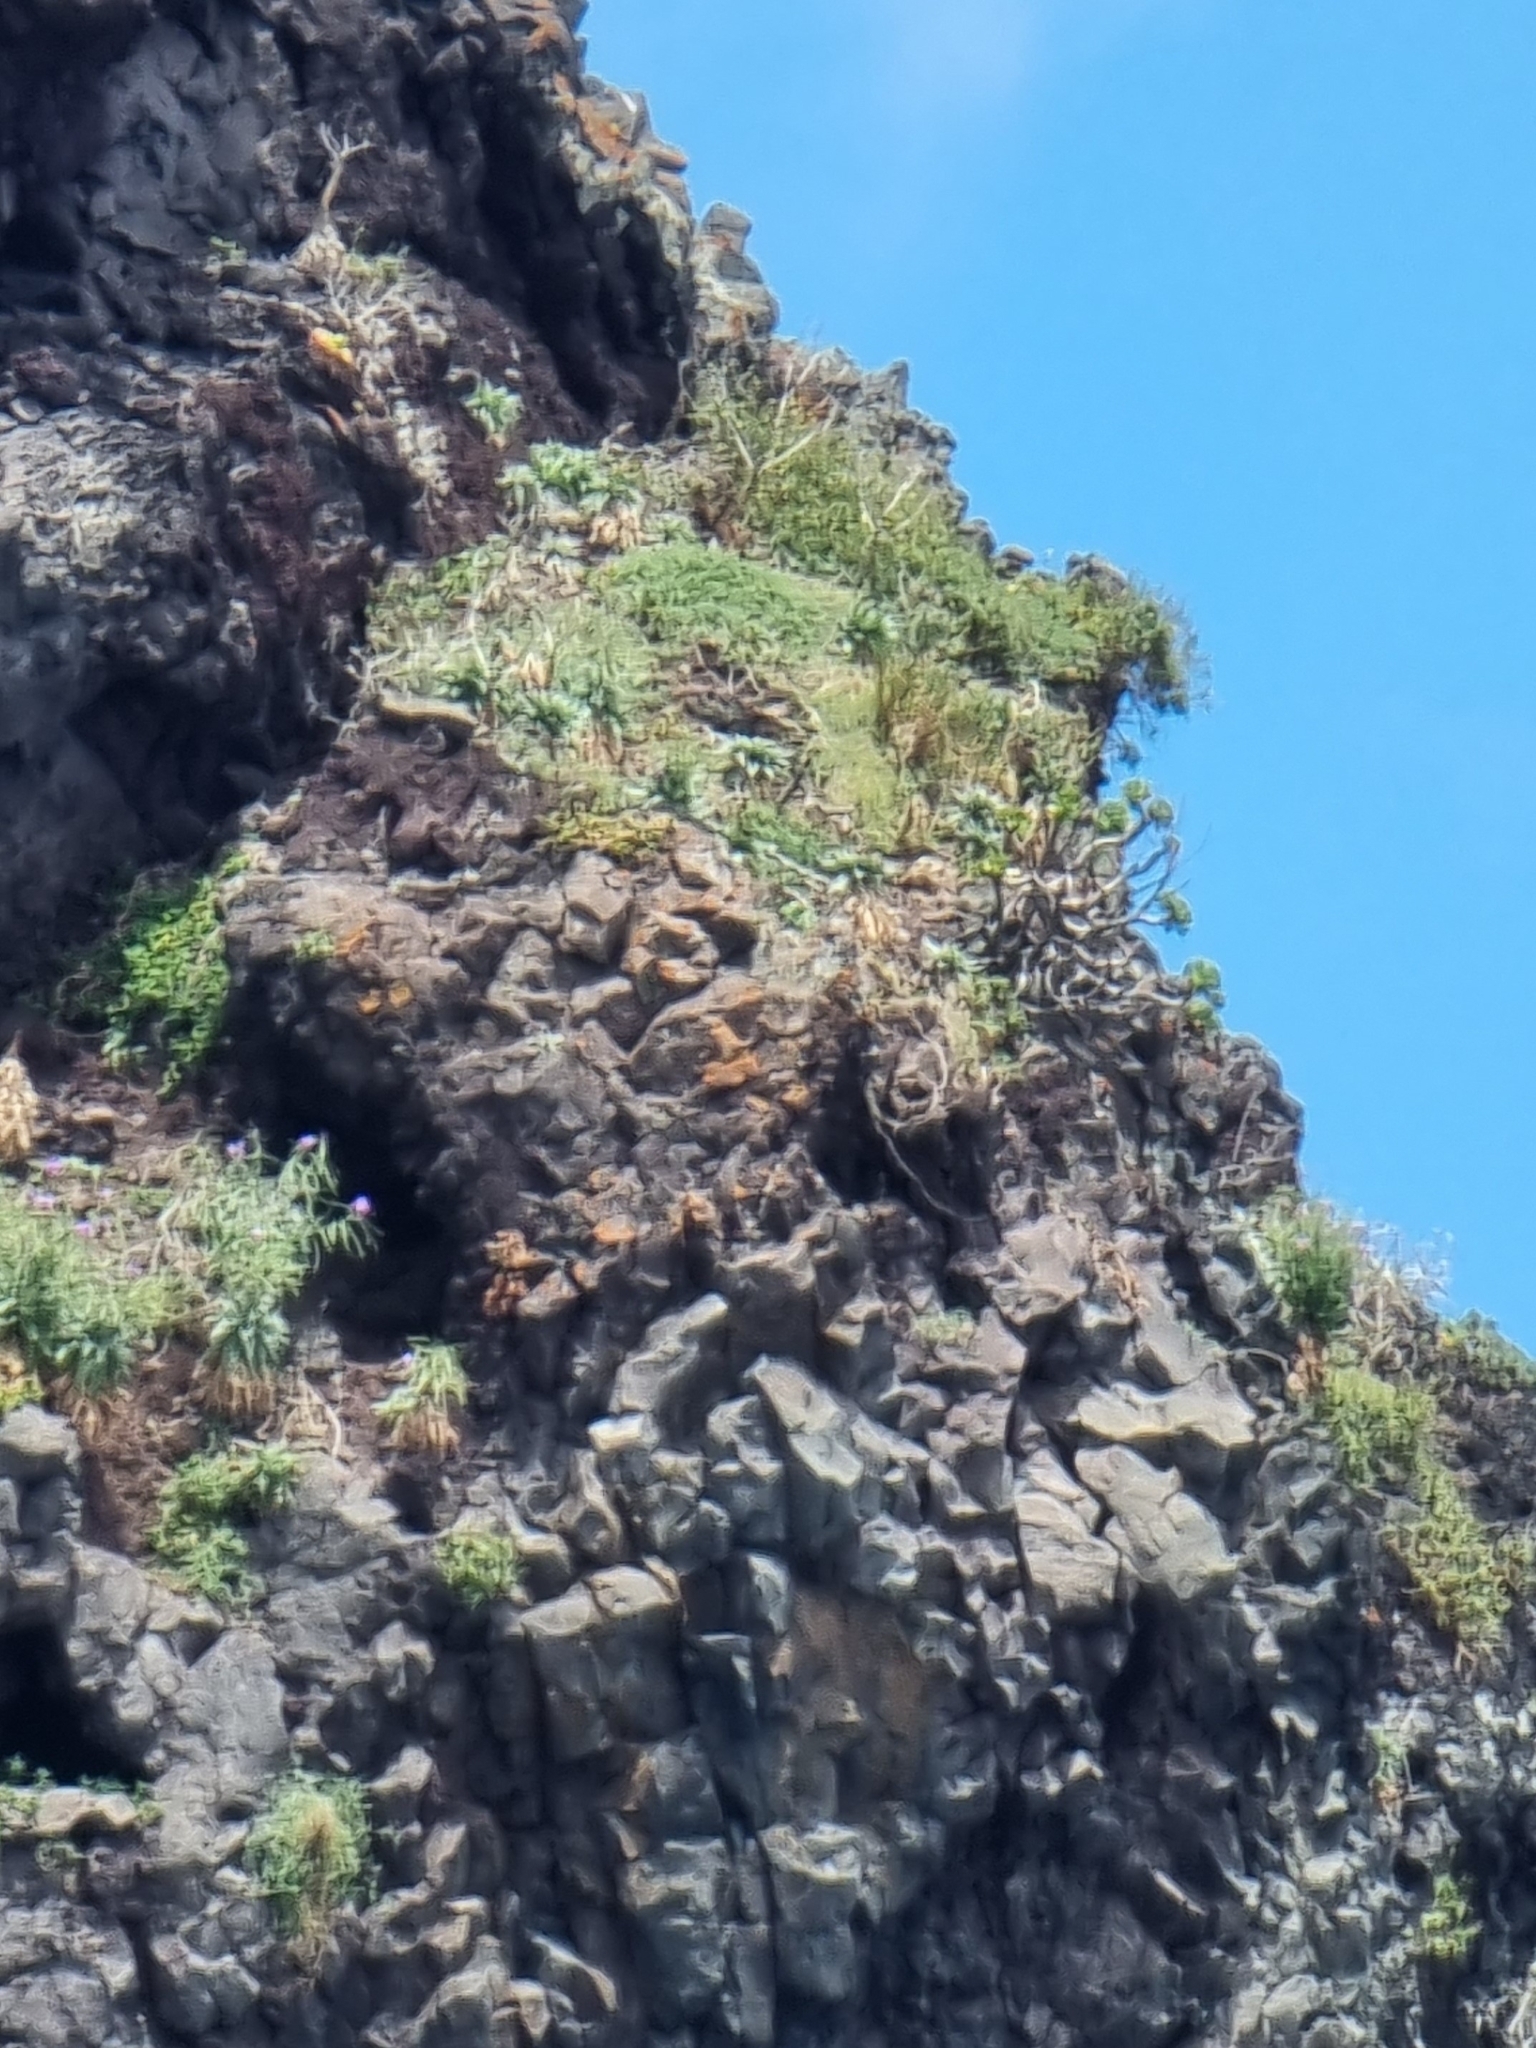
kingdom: Plantae
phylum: Tracheophyta
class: Magnoliopsida
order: Saxifragales
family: Crassulaceae
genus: Aeonium
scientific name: Aeonium glutinosum
